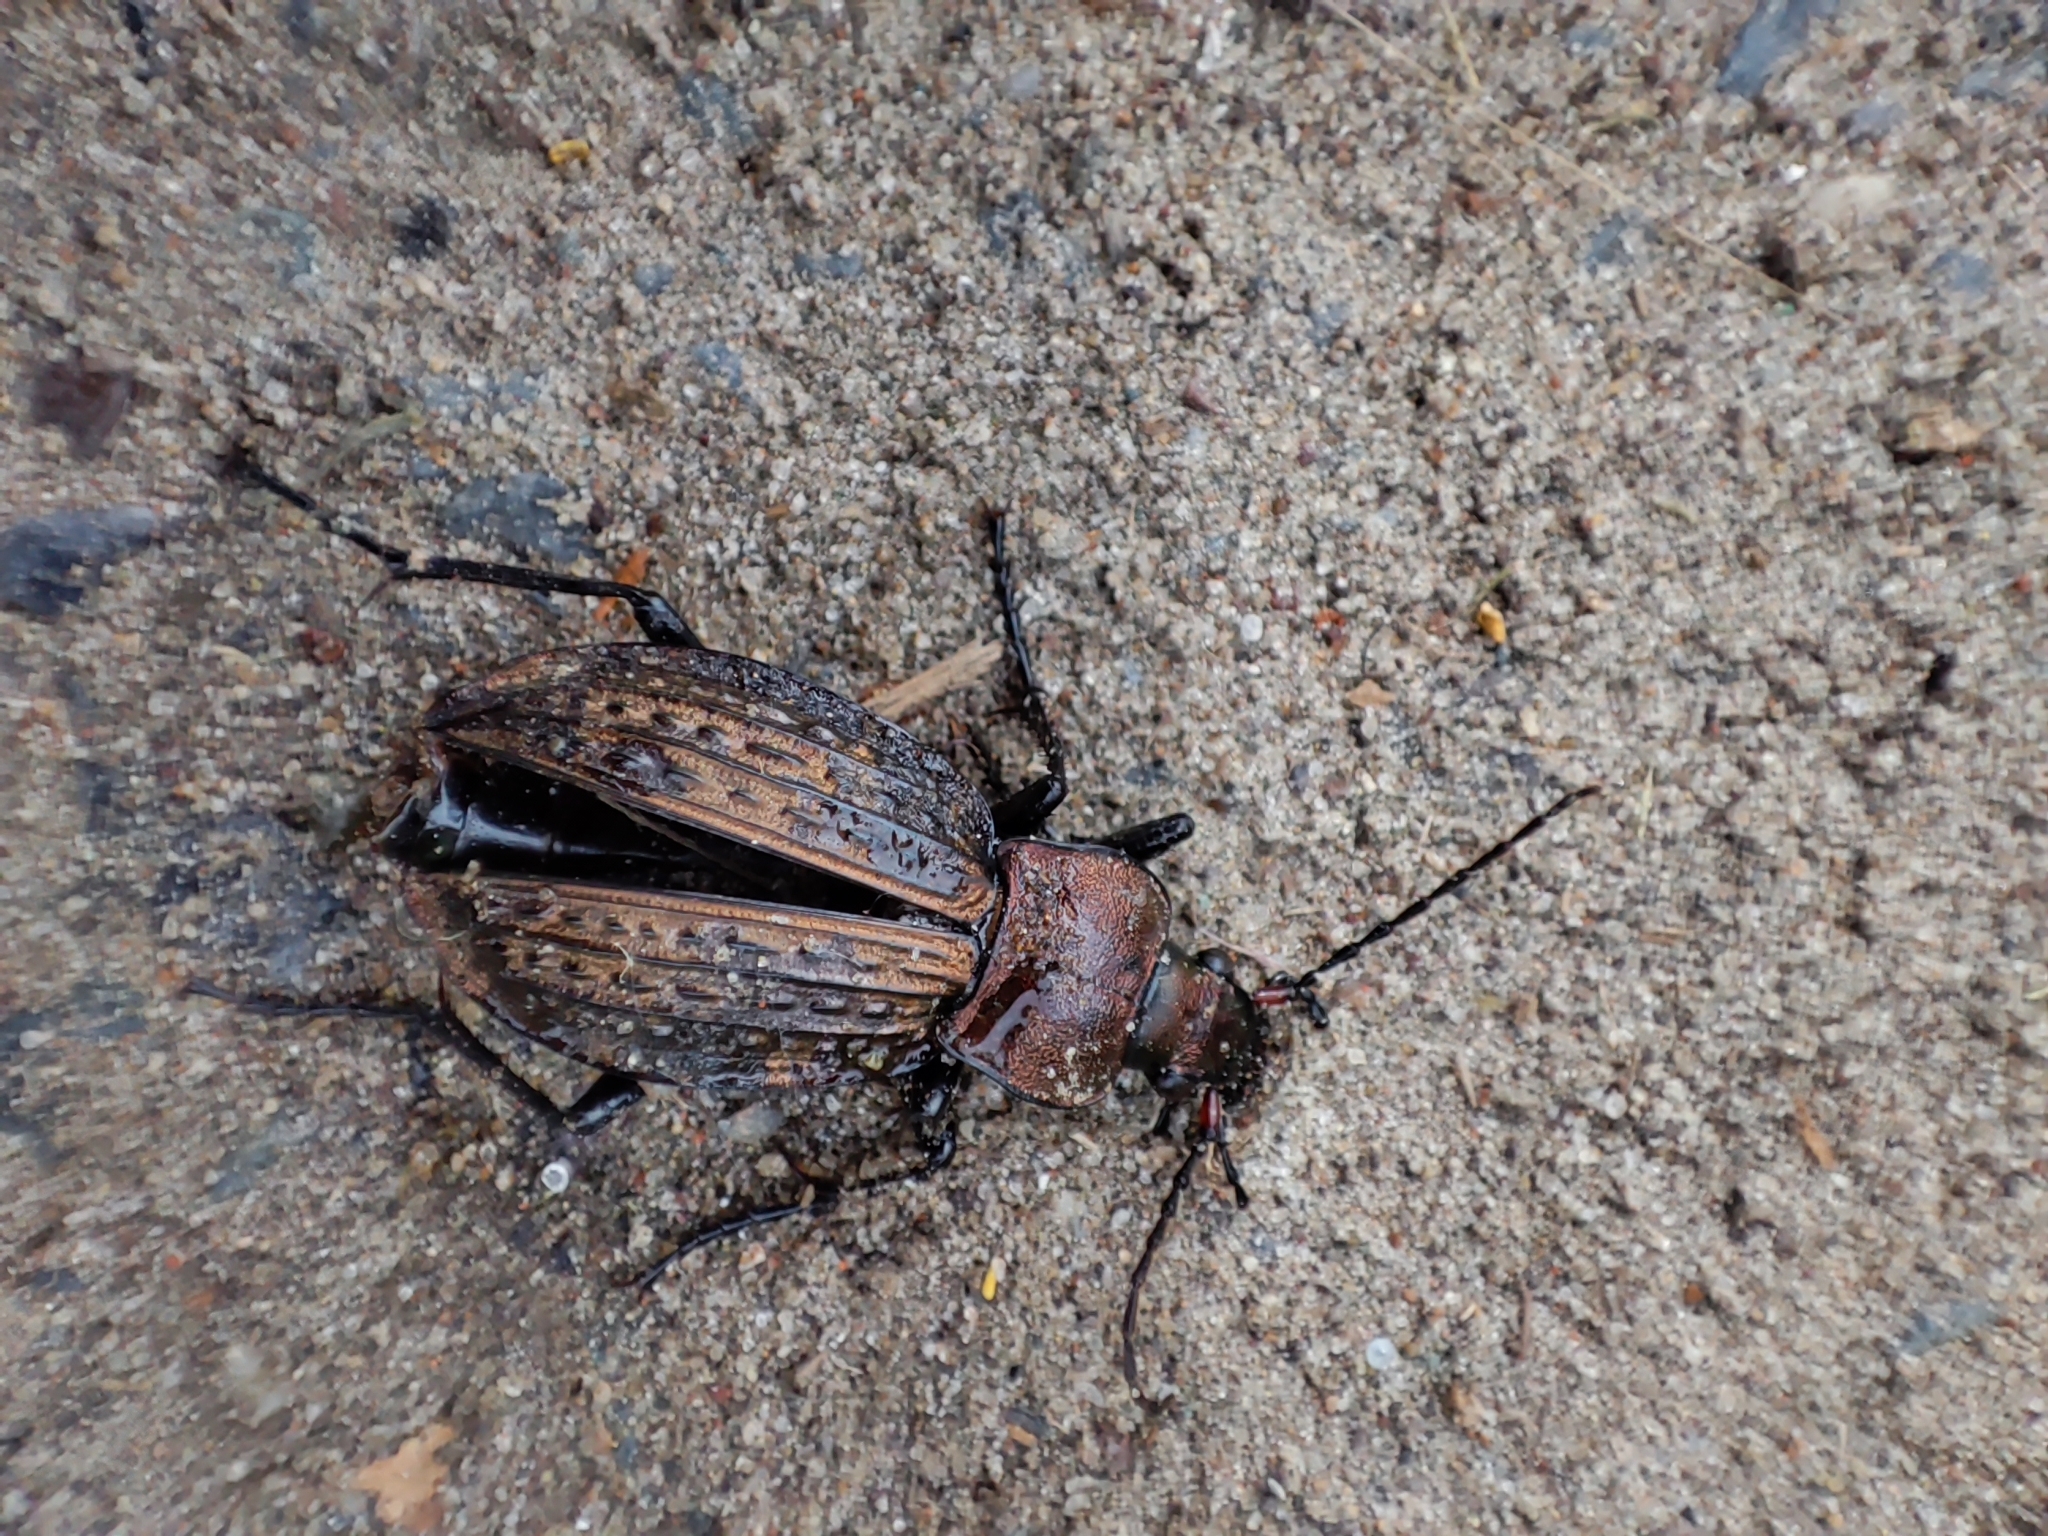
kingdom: Animalia
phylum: Arthropoda
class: Insecta
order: Coleoptera
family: Carabidae
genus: Carabus
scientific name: Carabus cancellatus
